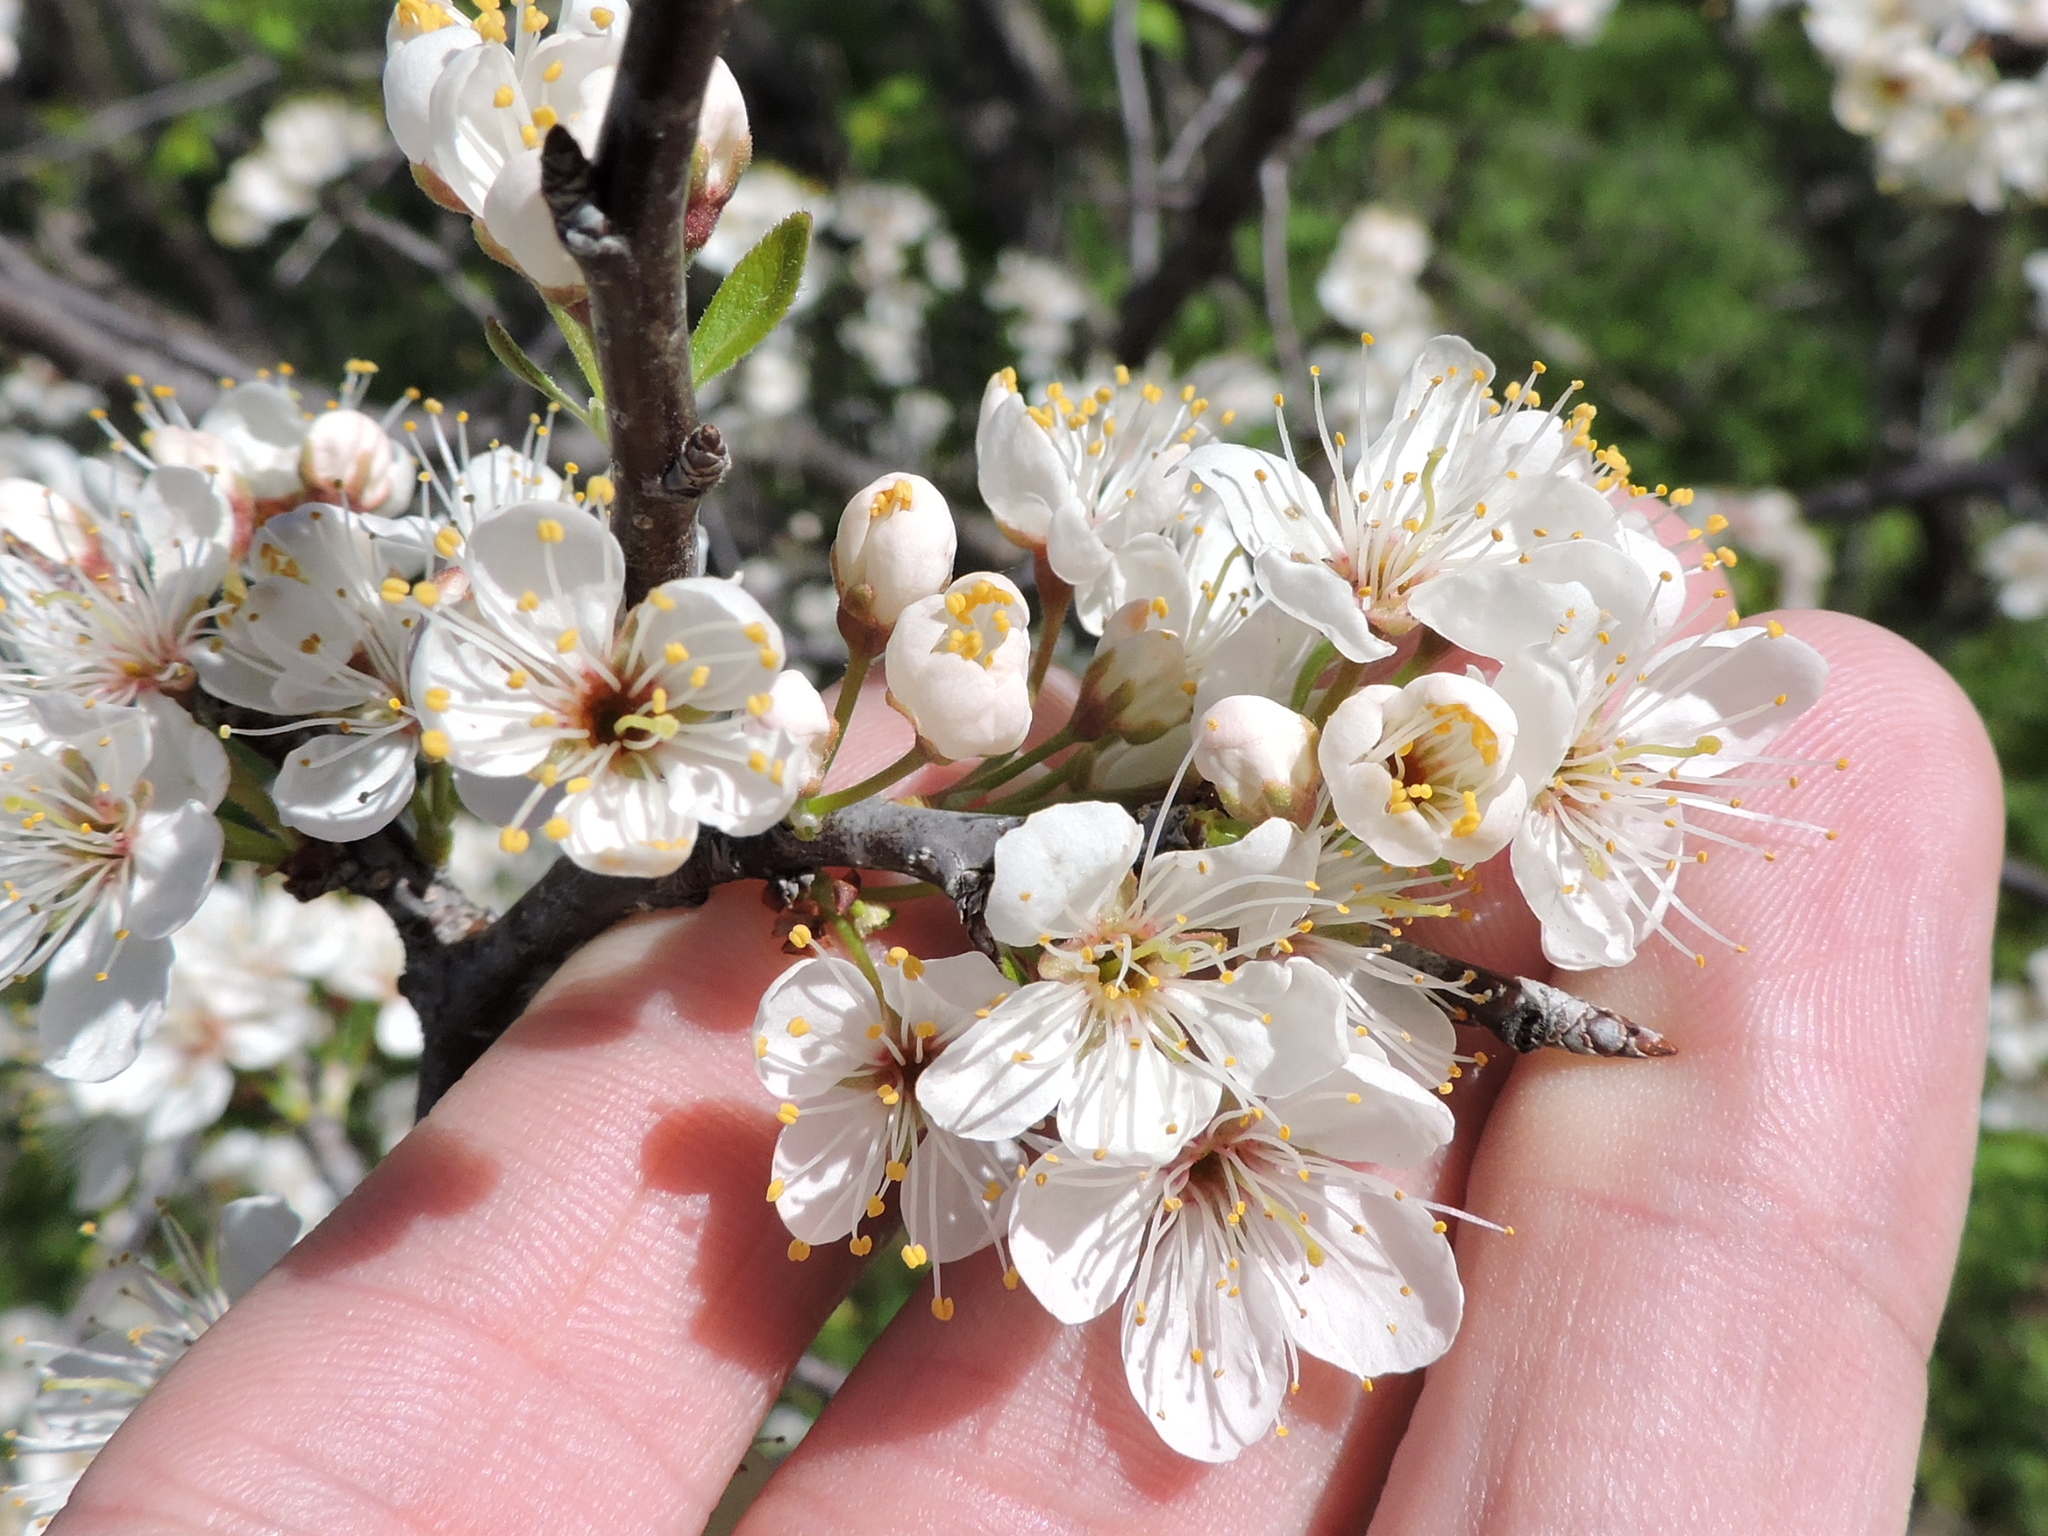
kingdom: Plantae
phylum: Tracheophyta
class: Magnoliopsida
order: Rosales
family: Rosaceae
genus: Prunus
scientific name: Prunus mexicana
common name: Mexican plum
